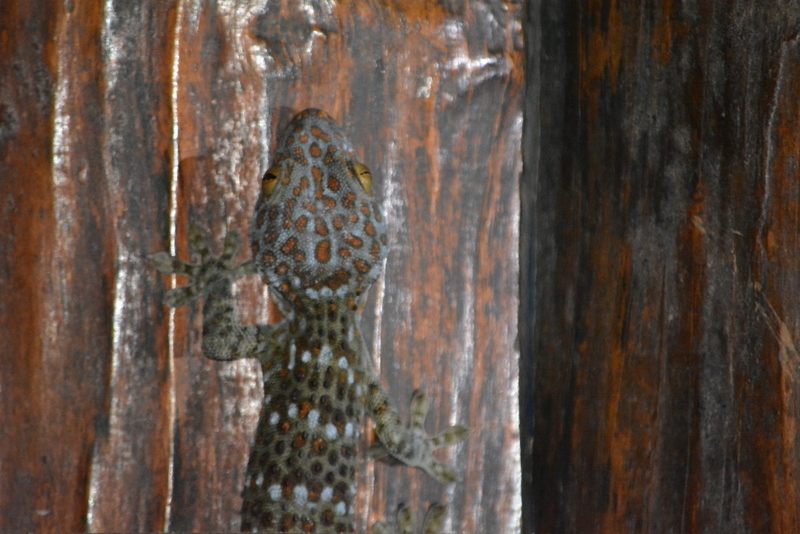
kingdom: Animalia
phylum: Chordata
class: Squamata
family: Gekkonidae
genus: Gekko
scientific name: Gekko gecko
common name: Tokay gecko
